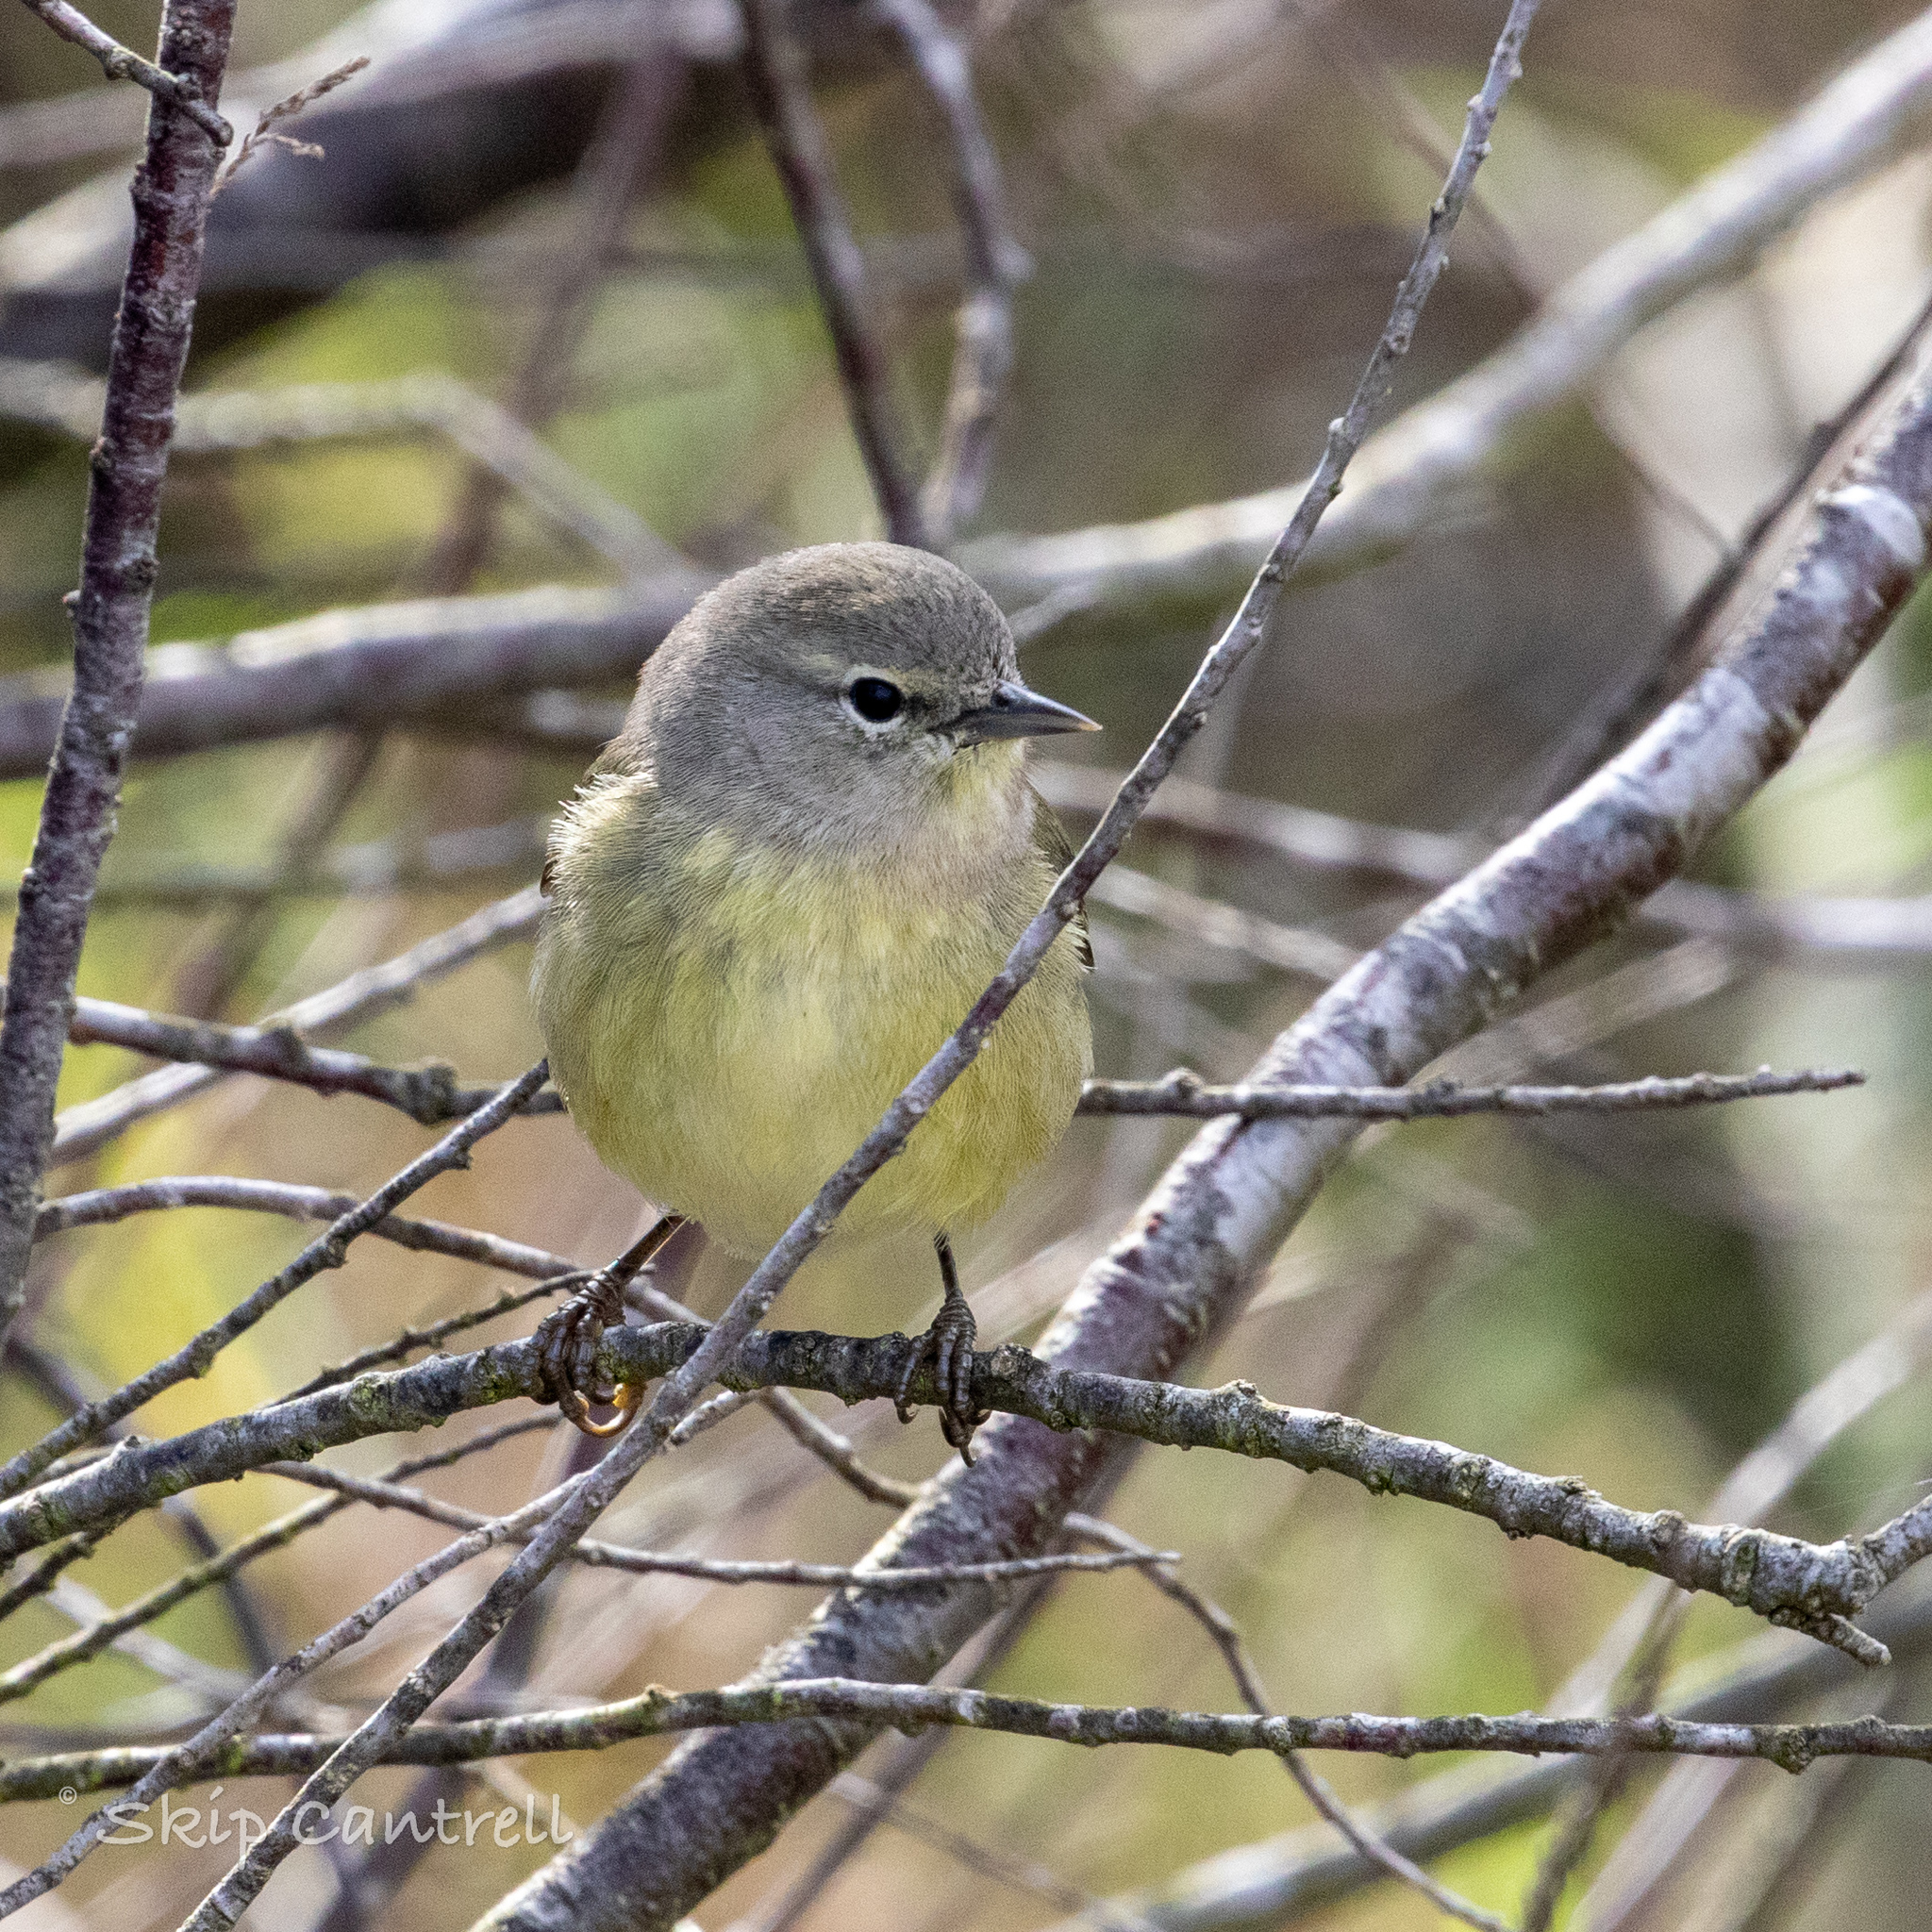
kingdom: Animalia
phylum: Chordata
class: Aves
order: Passeriformes
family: Parulidae
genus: Leiothlypis
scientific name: Leiothlypis celata
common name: Orange-crowned warbler
